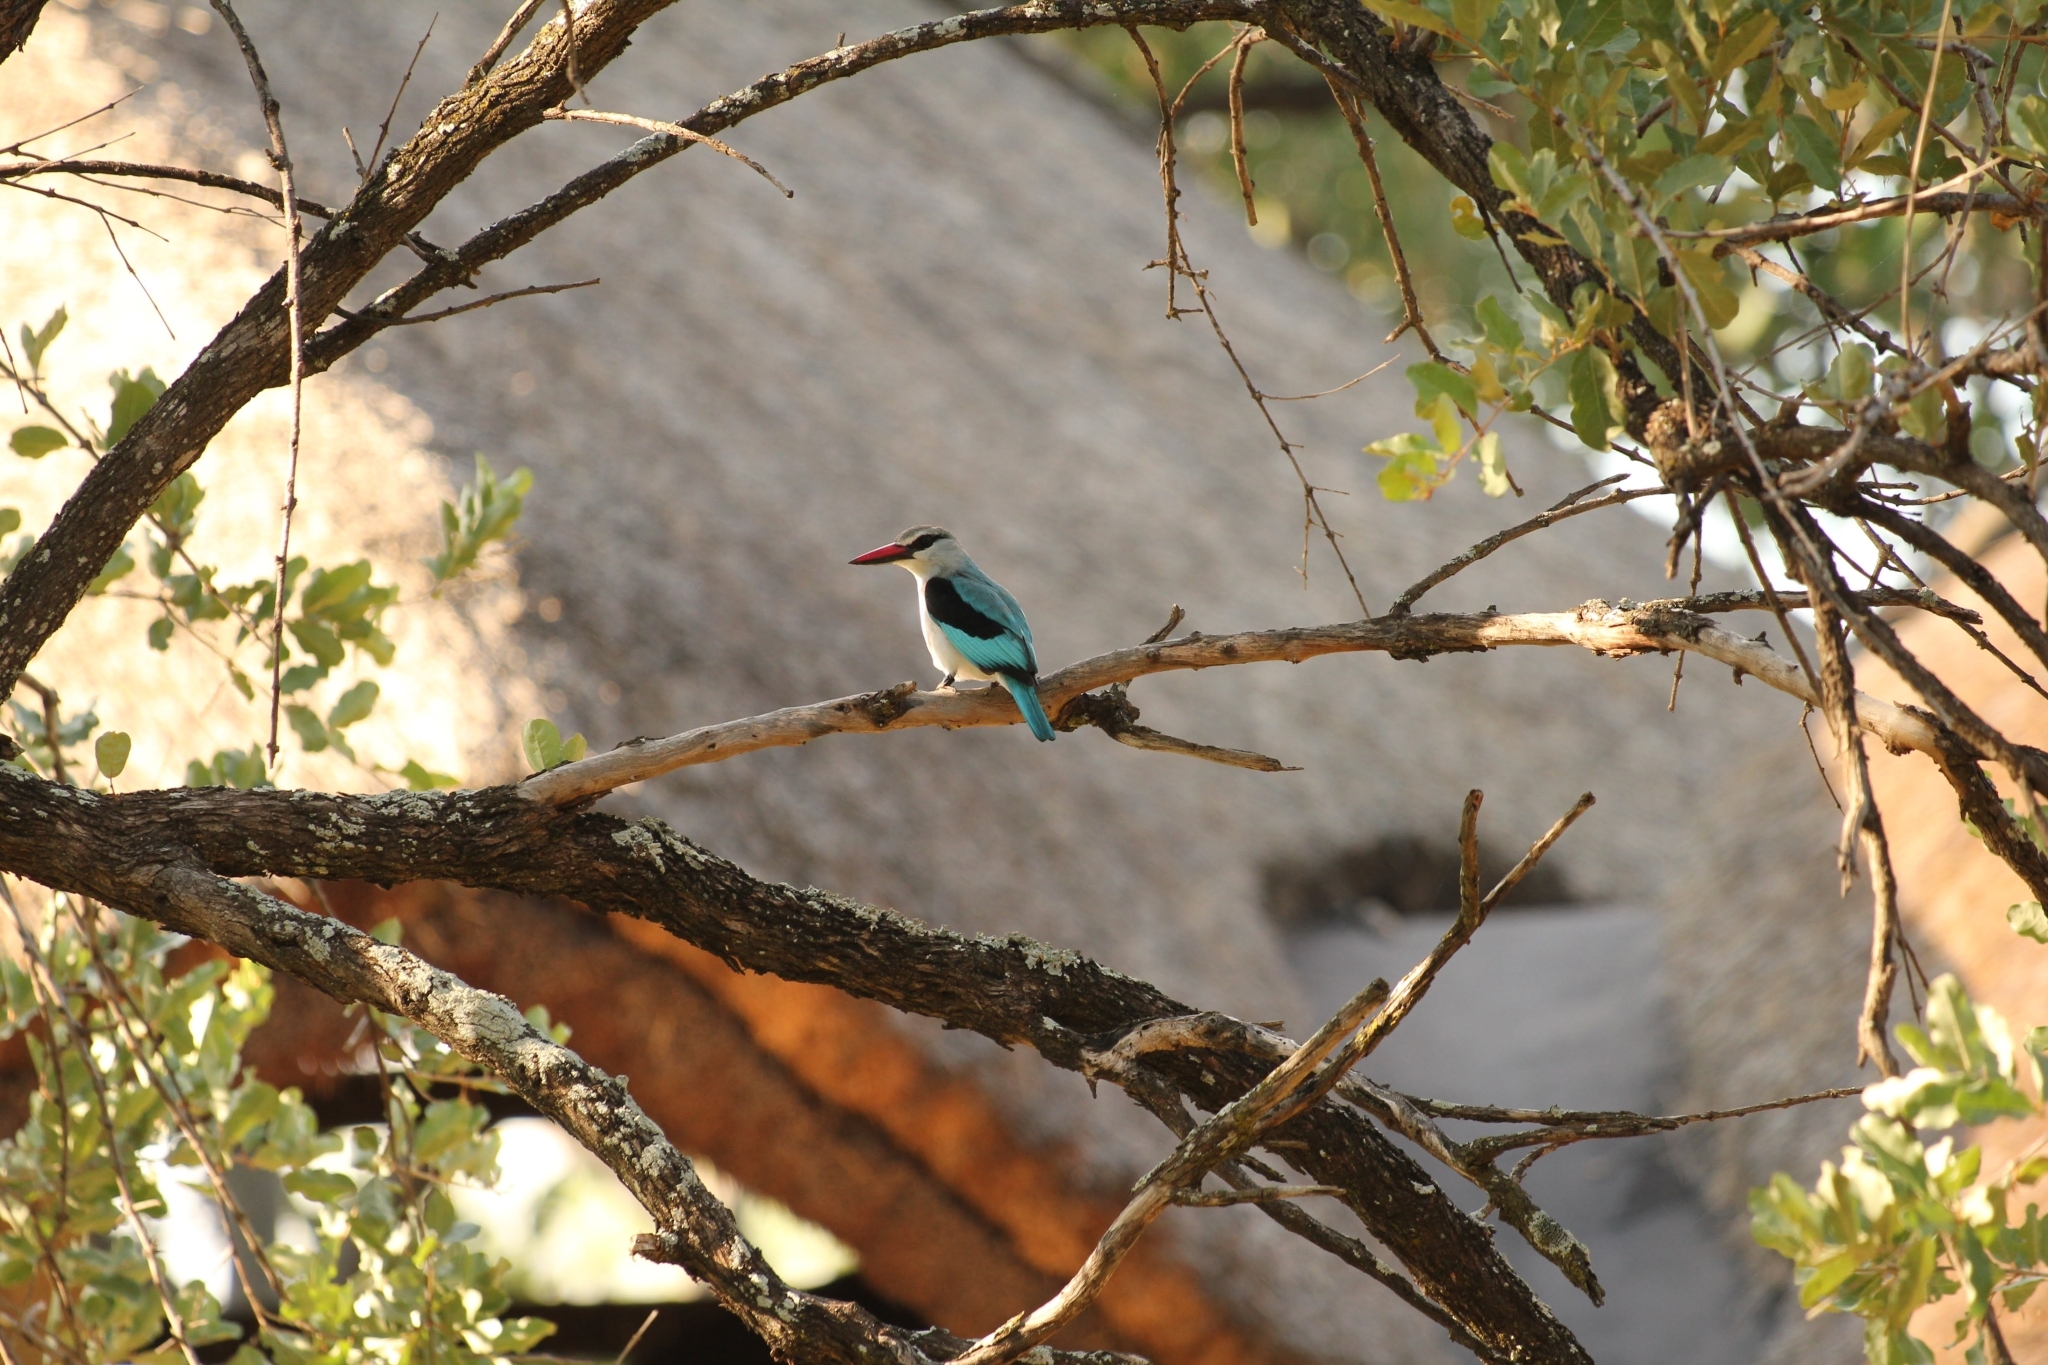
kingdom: Animalia
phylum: Chordata
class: Aves
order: Coraciiformes
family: Alcedinidae
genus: Halcyon
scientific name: Halcyon senegalensis
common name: Woodland kingfisher
